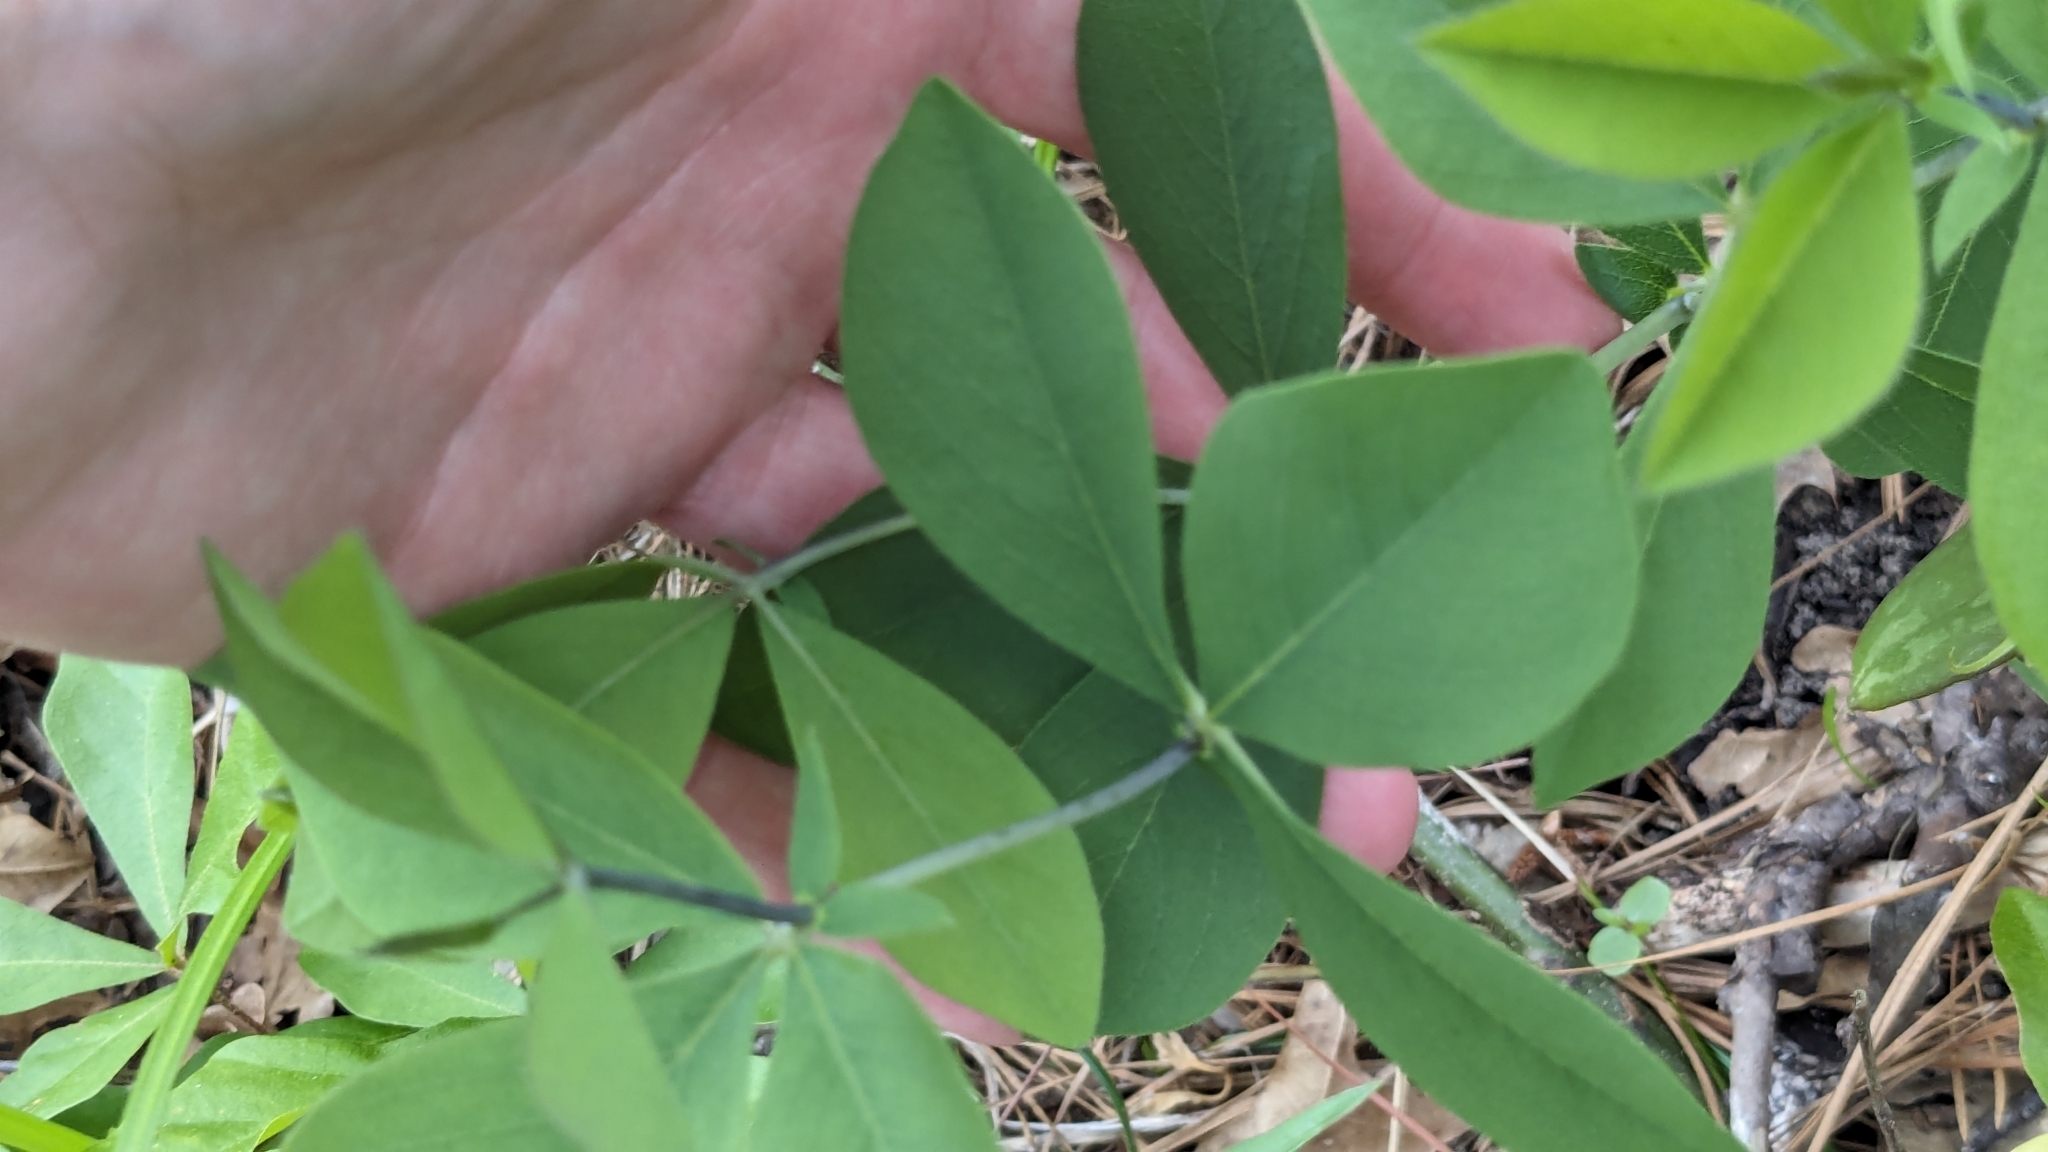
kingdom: Plantae
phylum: Tracheophyta
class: Magnoliopsida
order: Fabales
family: Fabaceae
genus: Baptisia
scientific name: Baptisia bracteata
